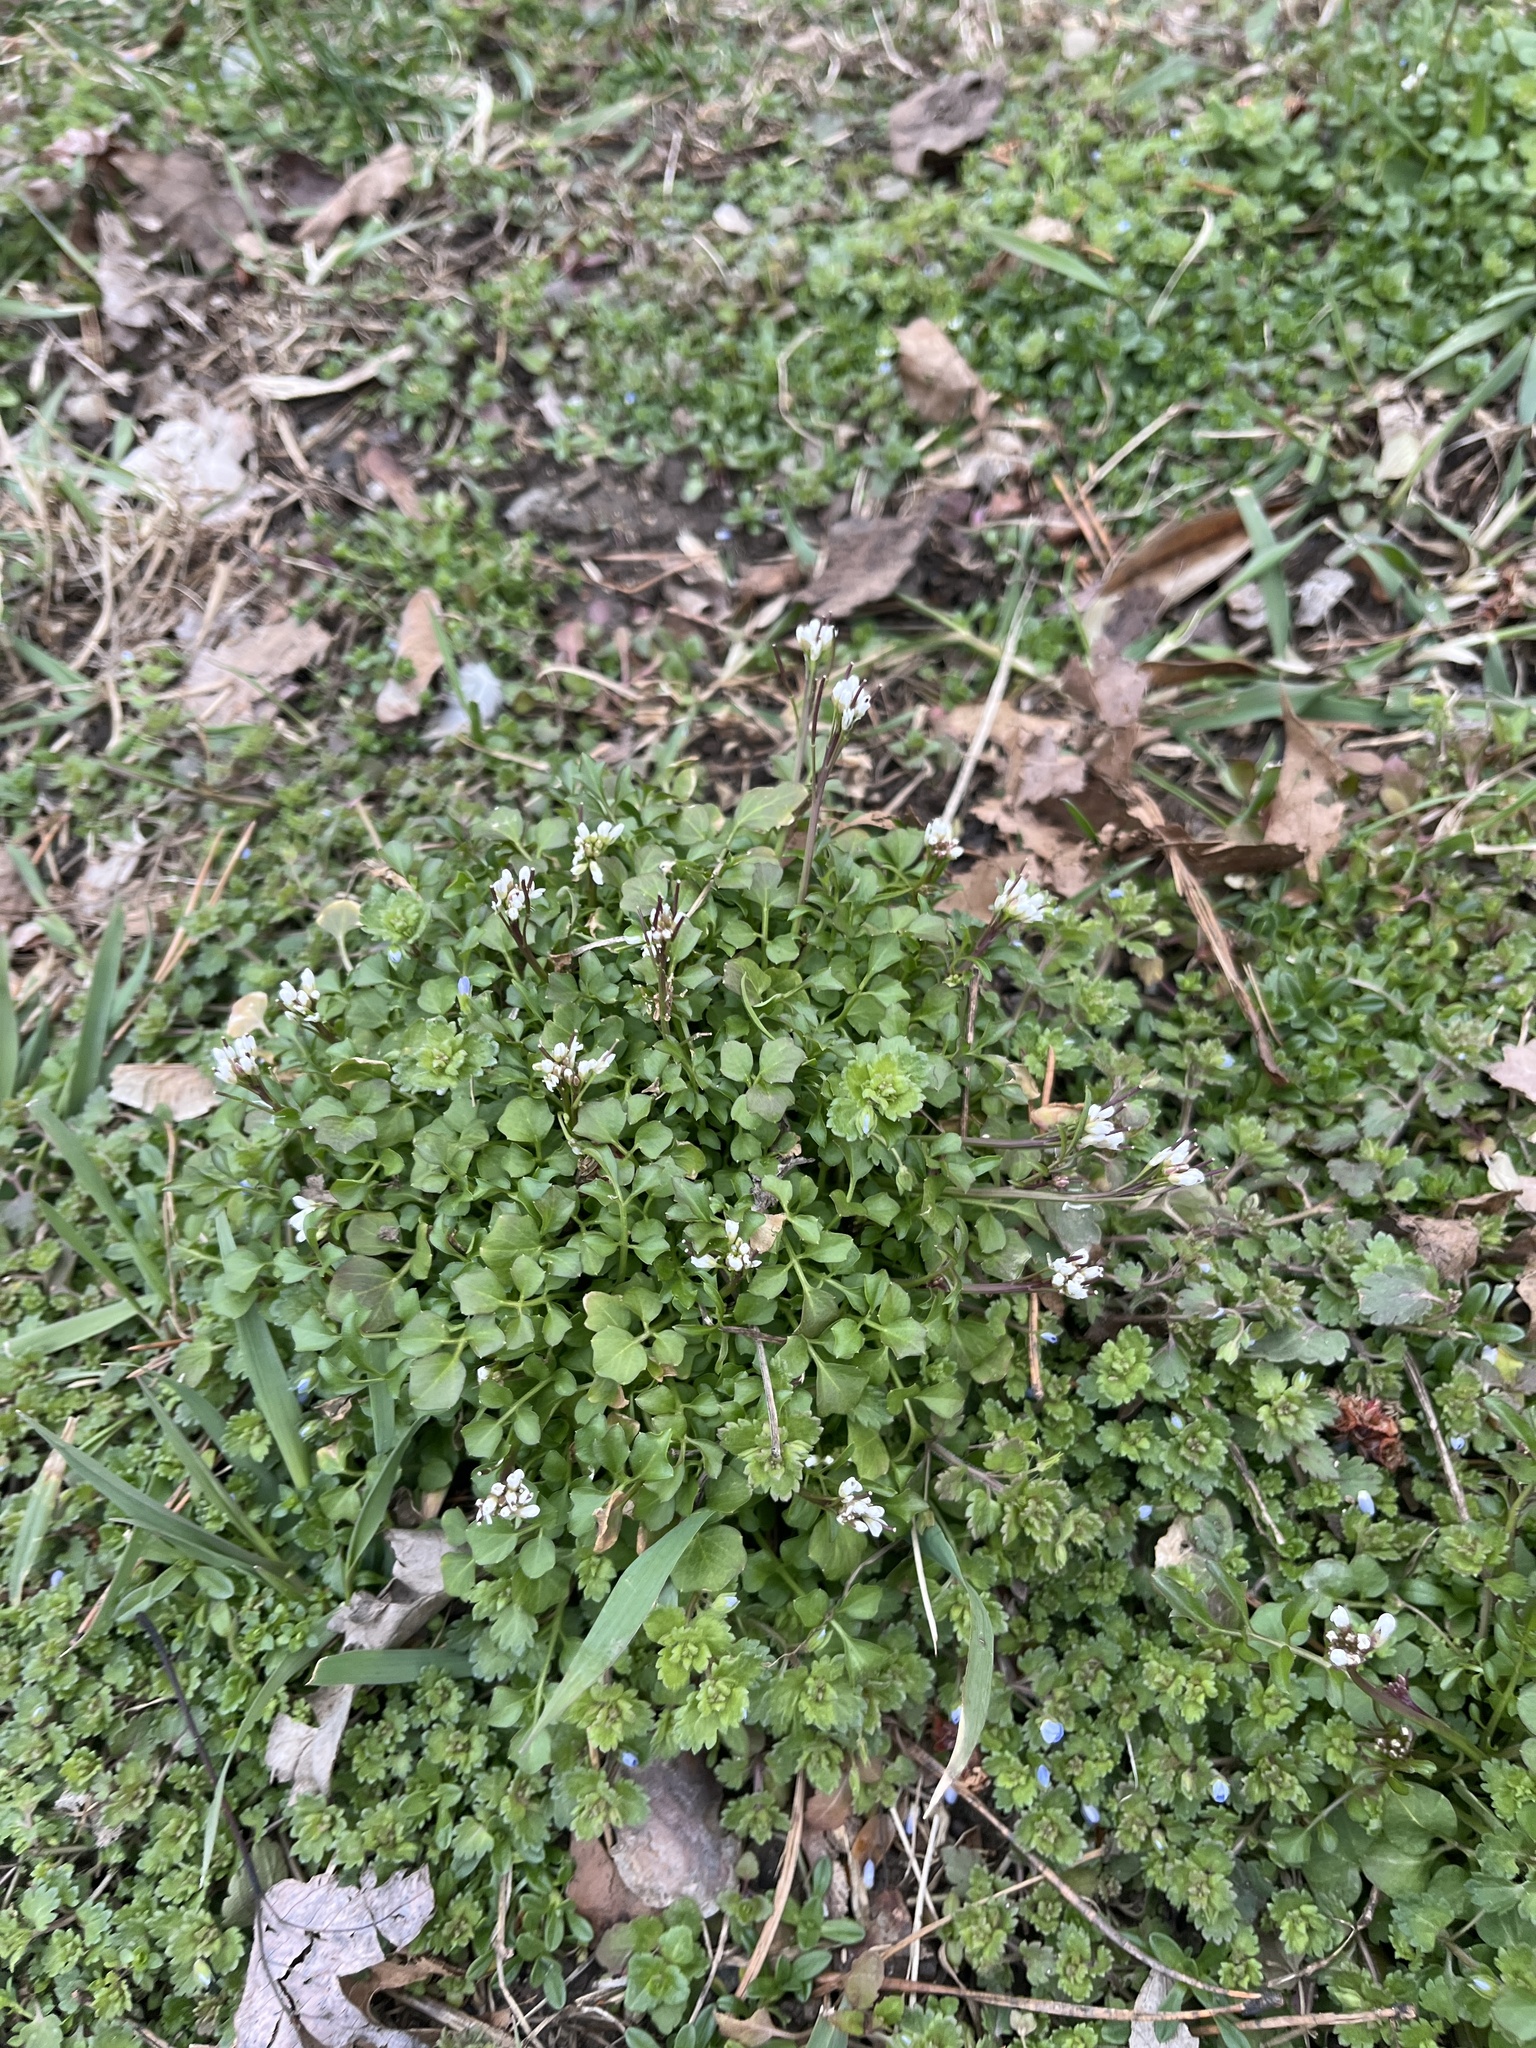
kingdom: Plantae
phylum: Tracheophyta
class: Magnoliopsida
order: Brassicales
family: Brassicaceae
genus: Cardamine
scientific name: Cardamine hirsuta
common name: Hairy bittercress
